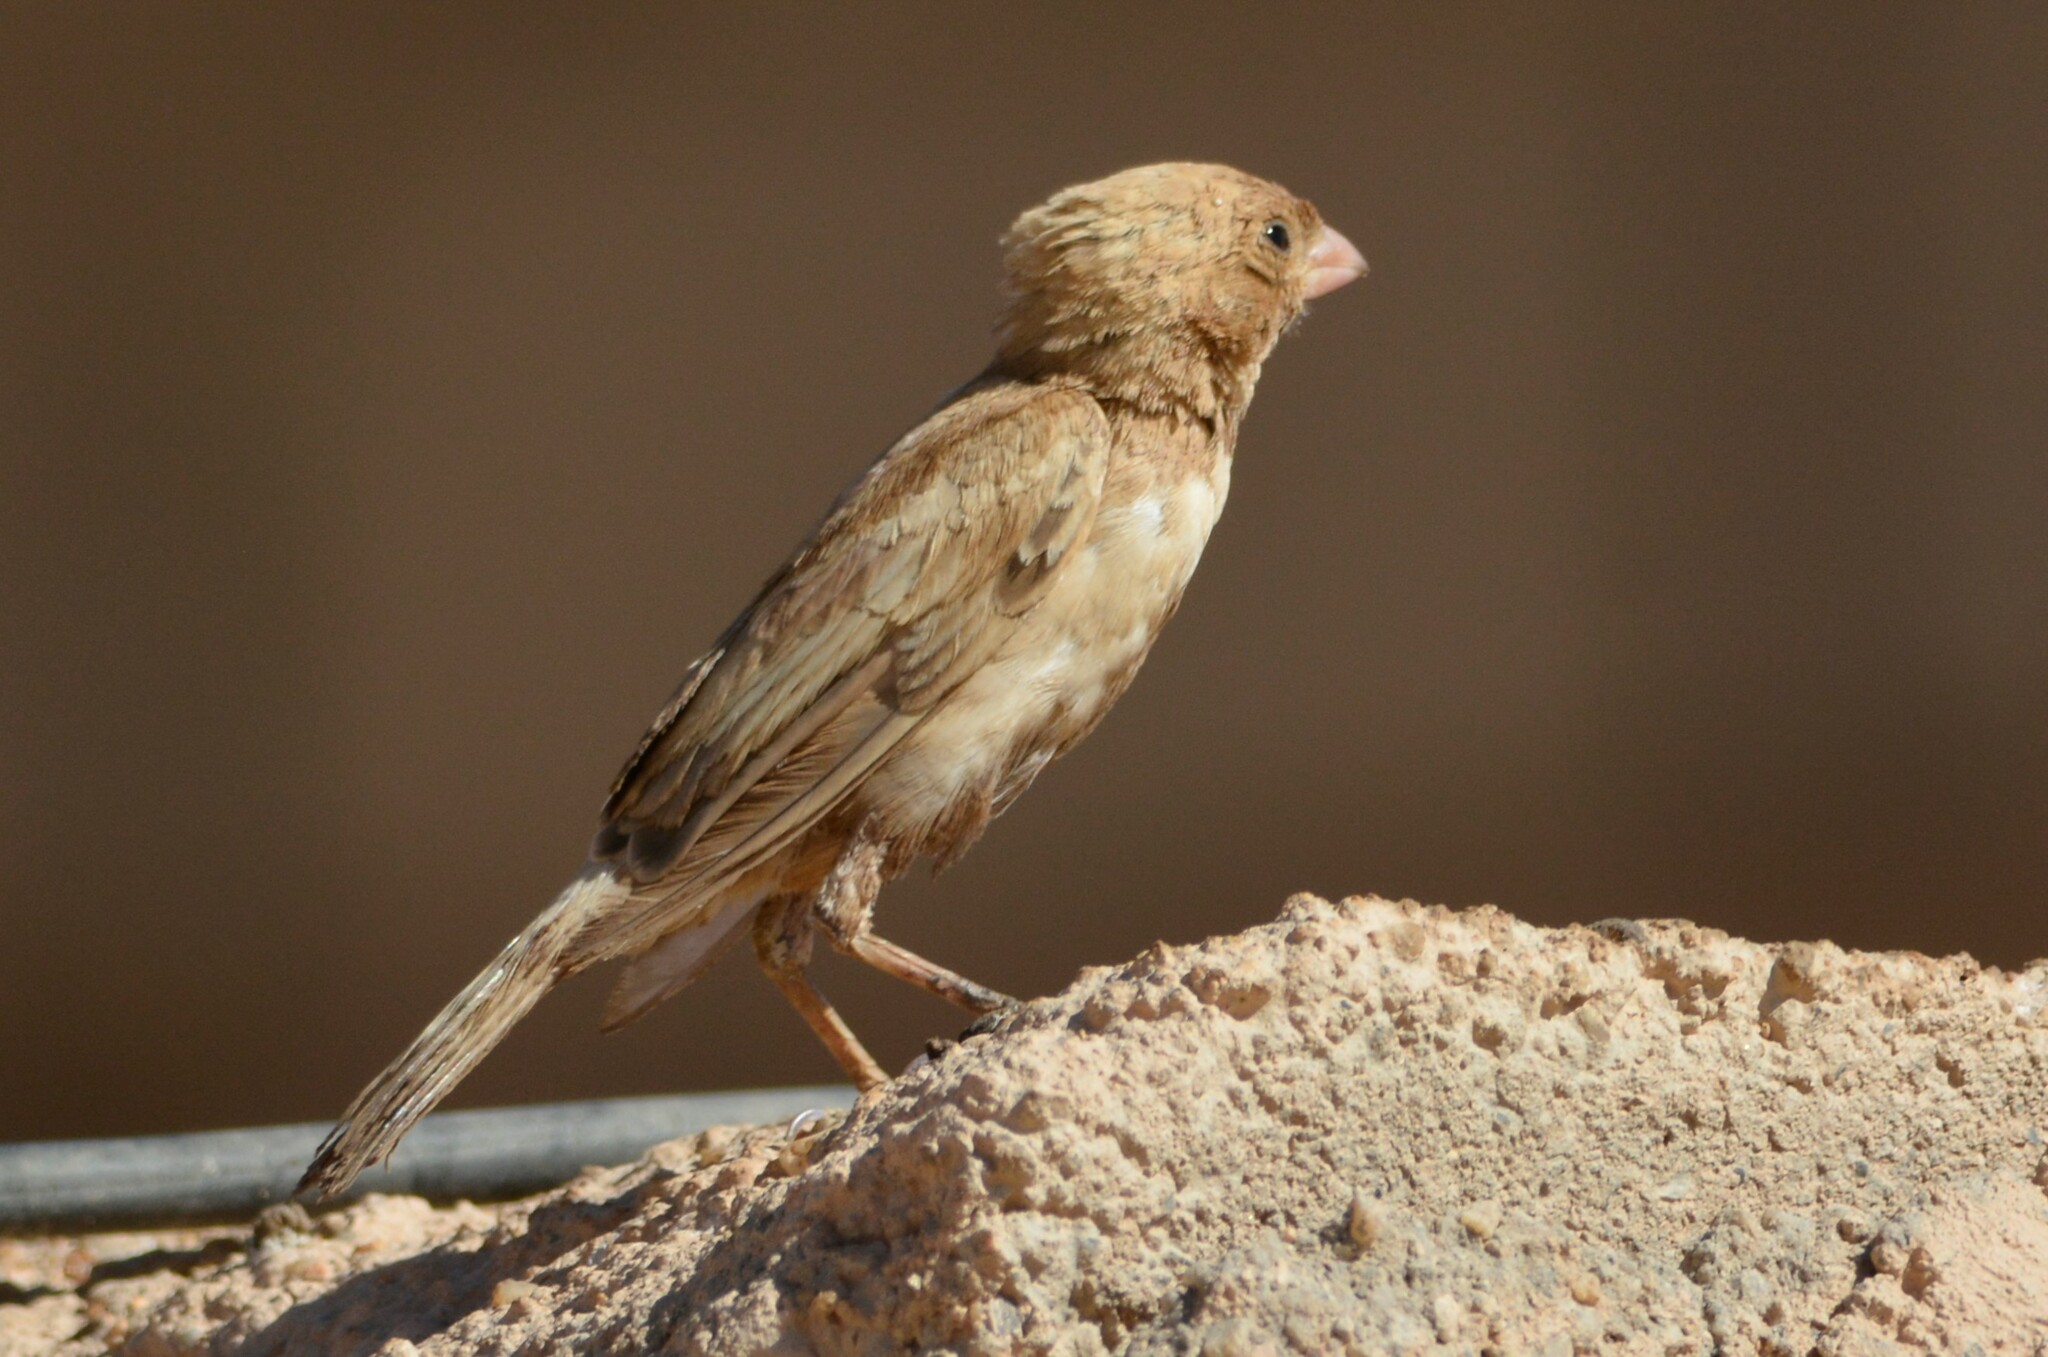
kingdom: Animalia
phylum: Chordata
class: Aves
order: Passeriformes
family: Fringillidae
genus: Bucanetes
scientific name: Bucanetes githagineus
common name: Trumpeter finch
